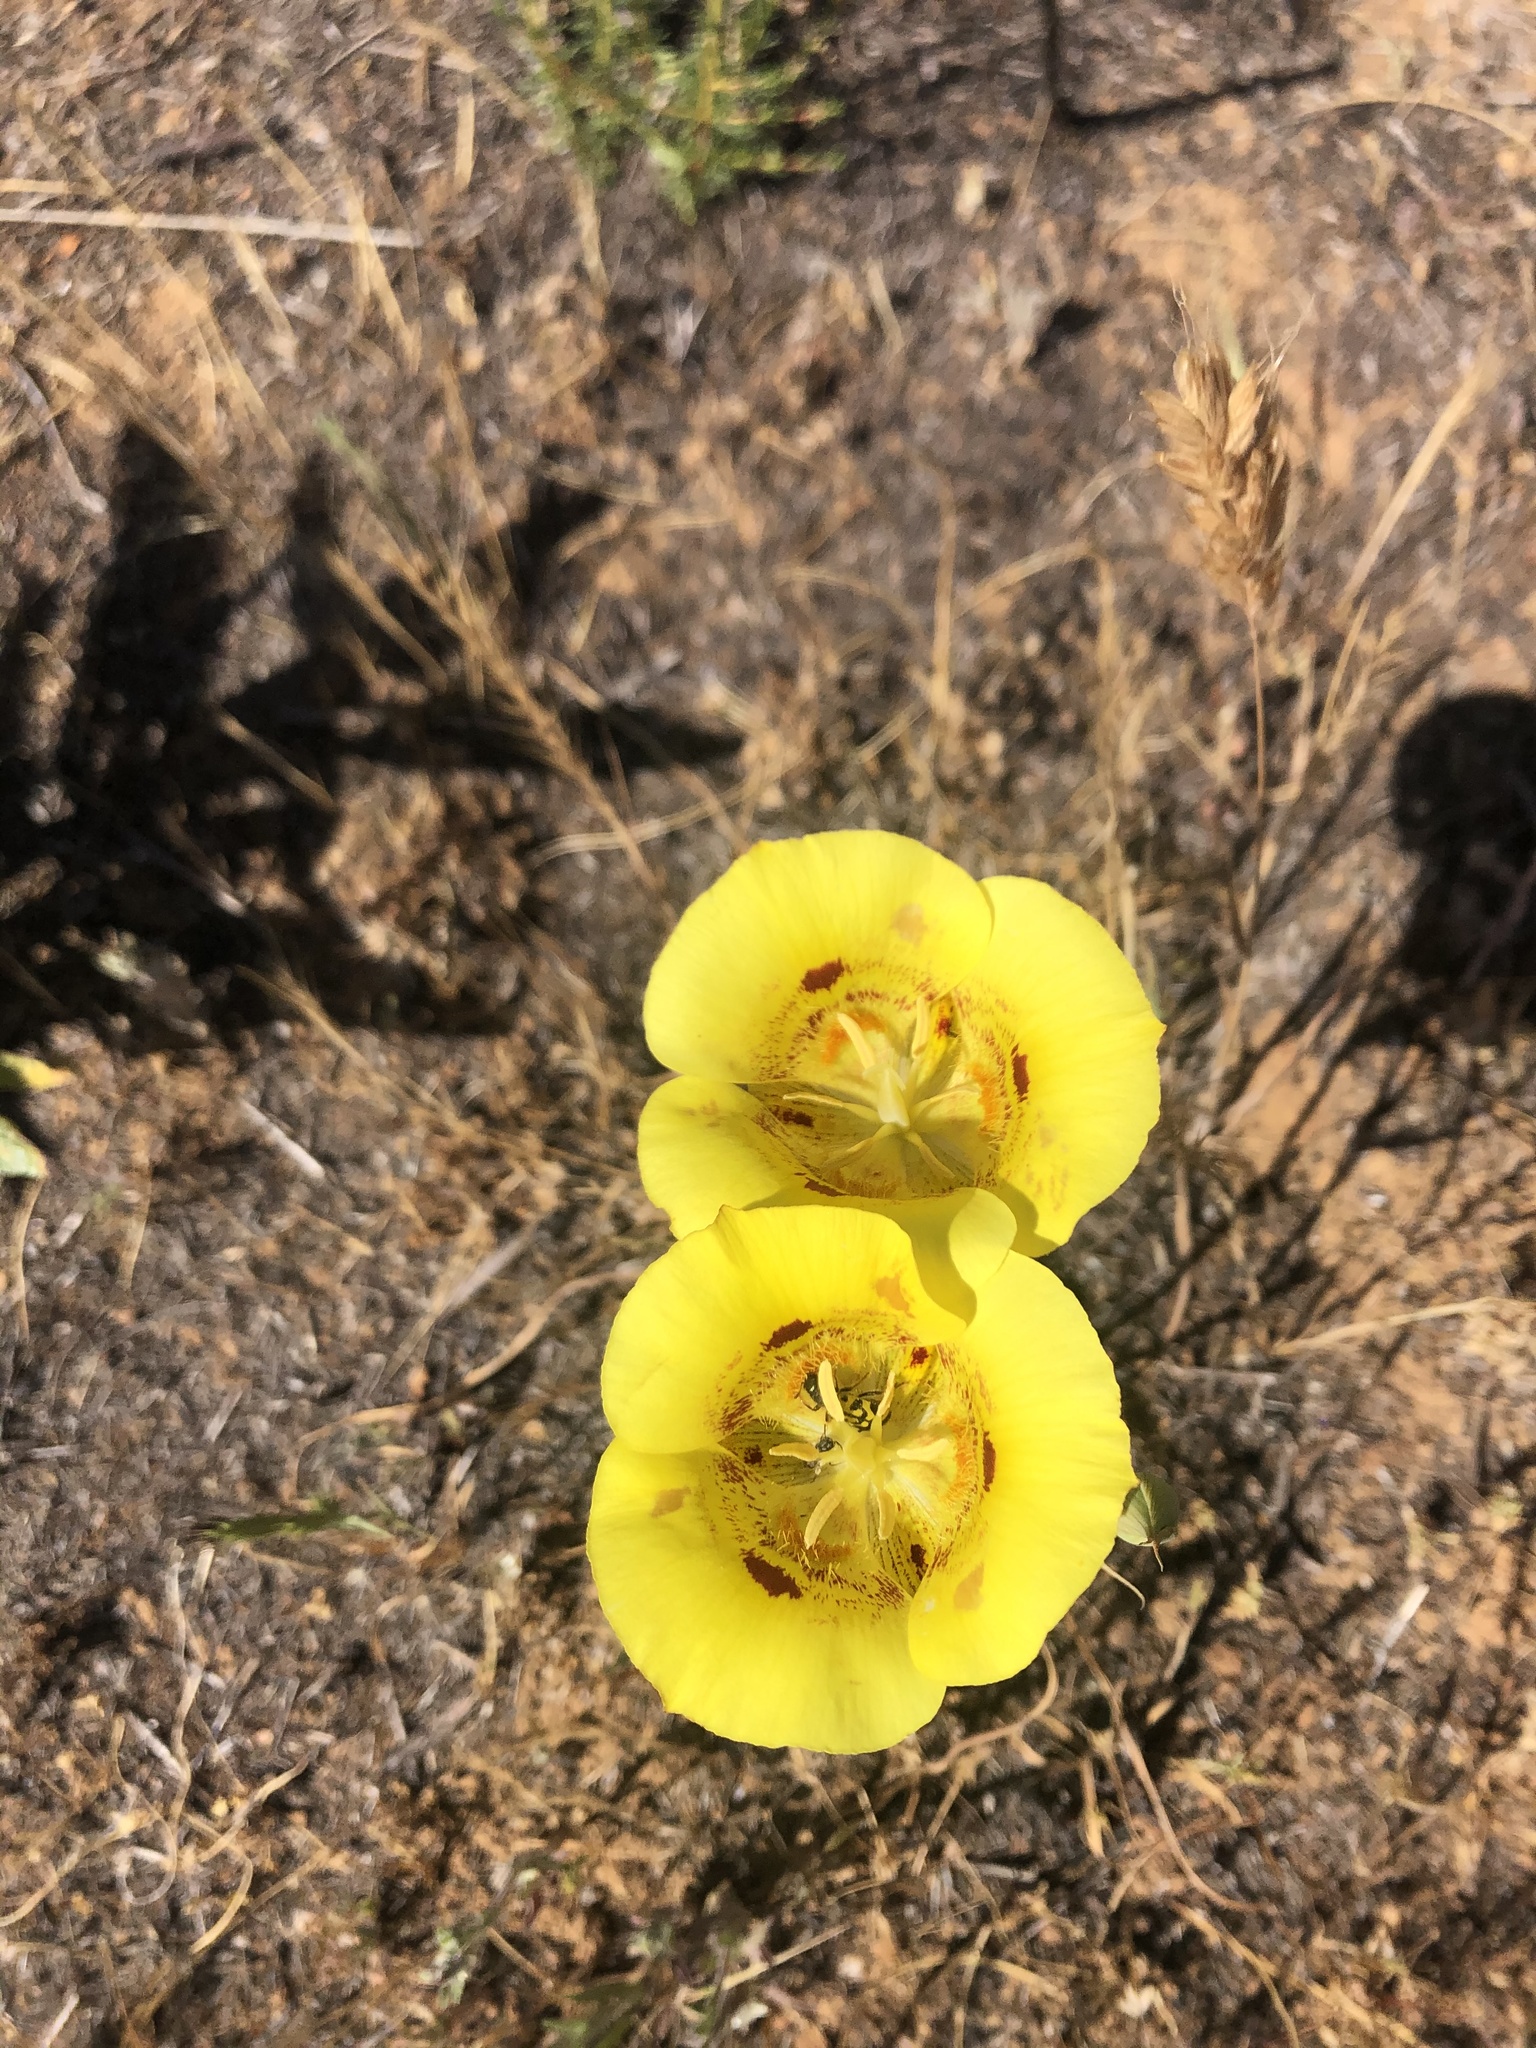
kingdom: Plantae
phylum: Tracheophyta
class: Liliopsida
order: Liliales
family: Liliaceae
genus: Calochortus
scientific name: Calochortus luteus
